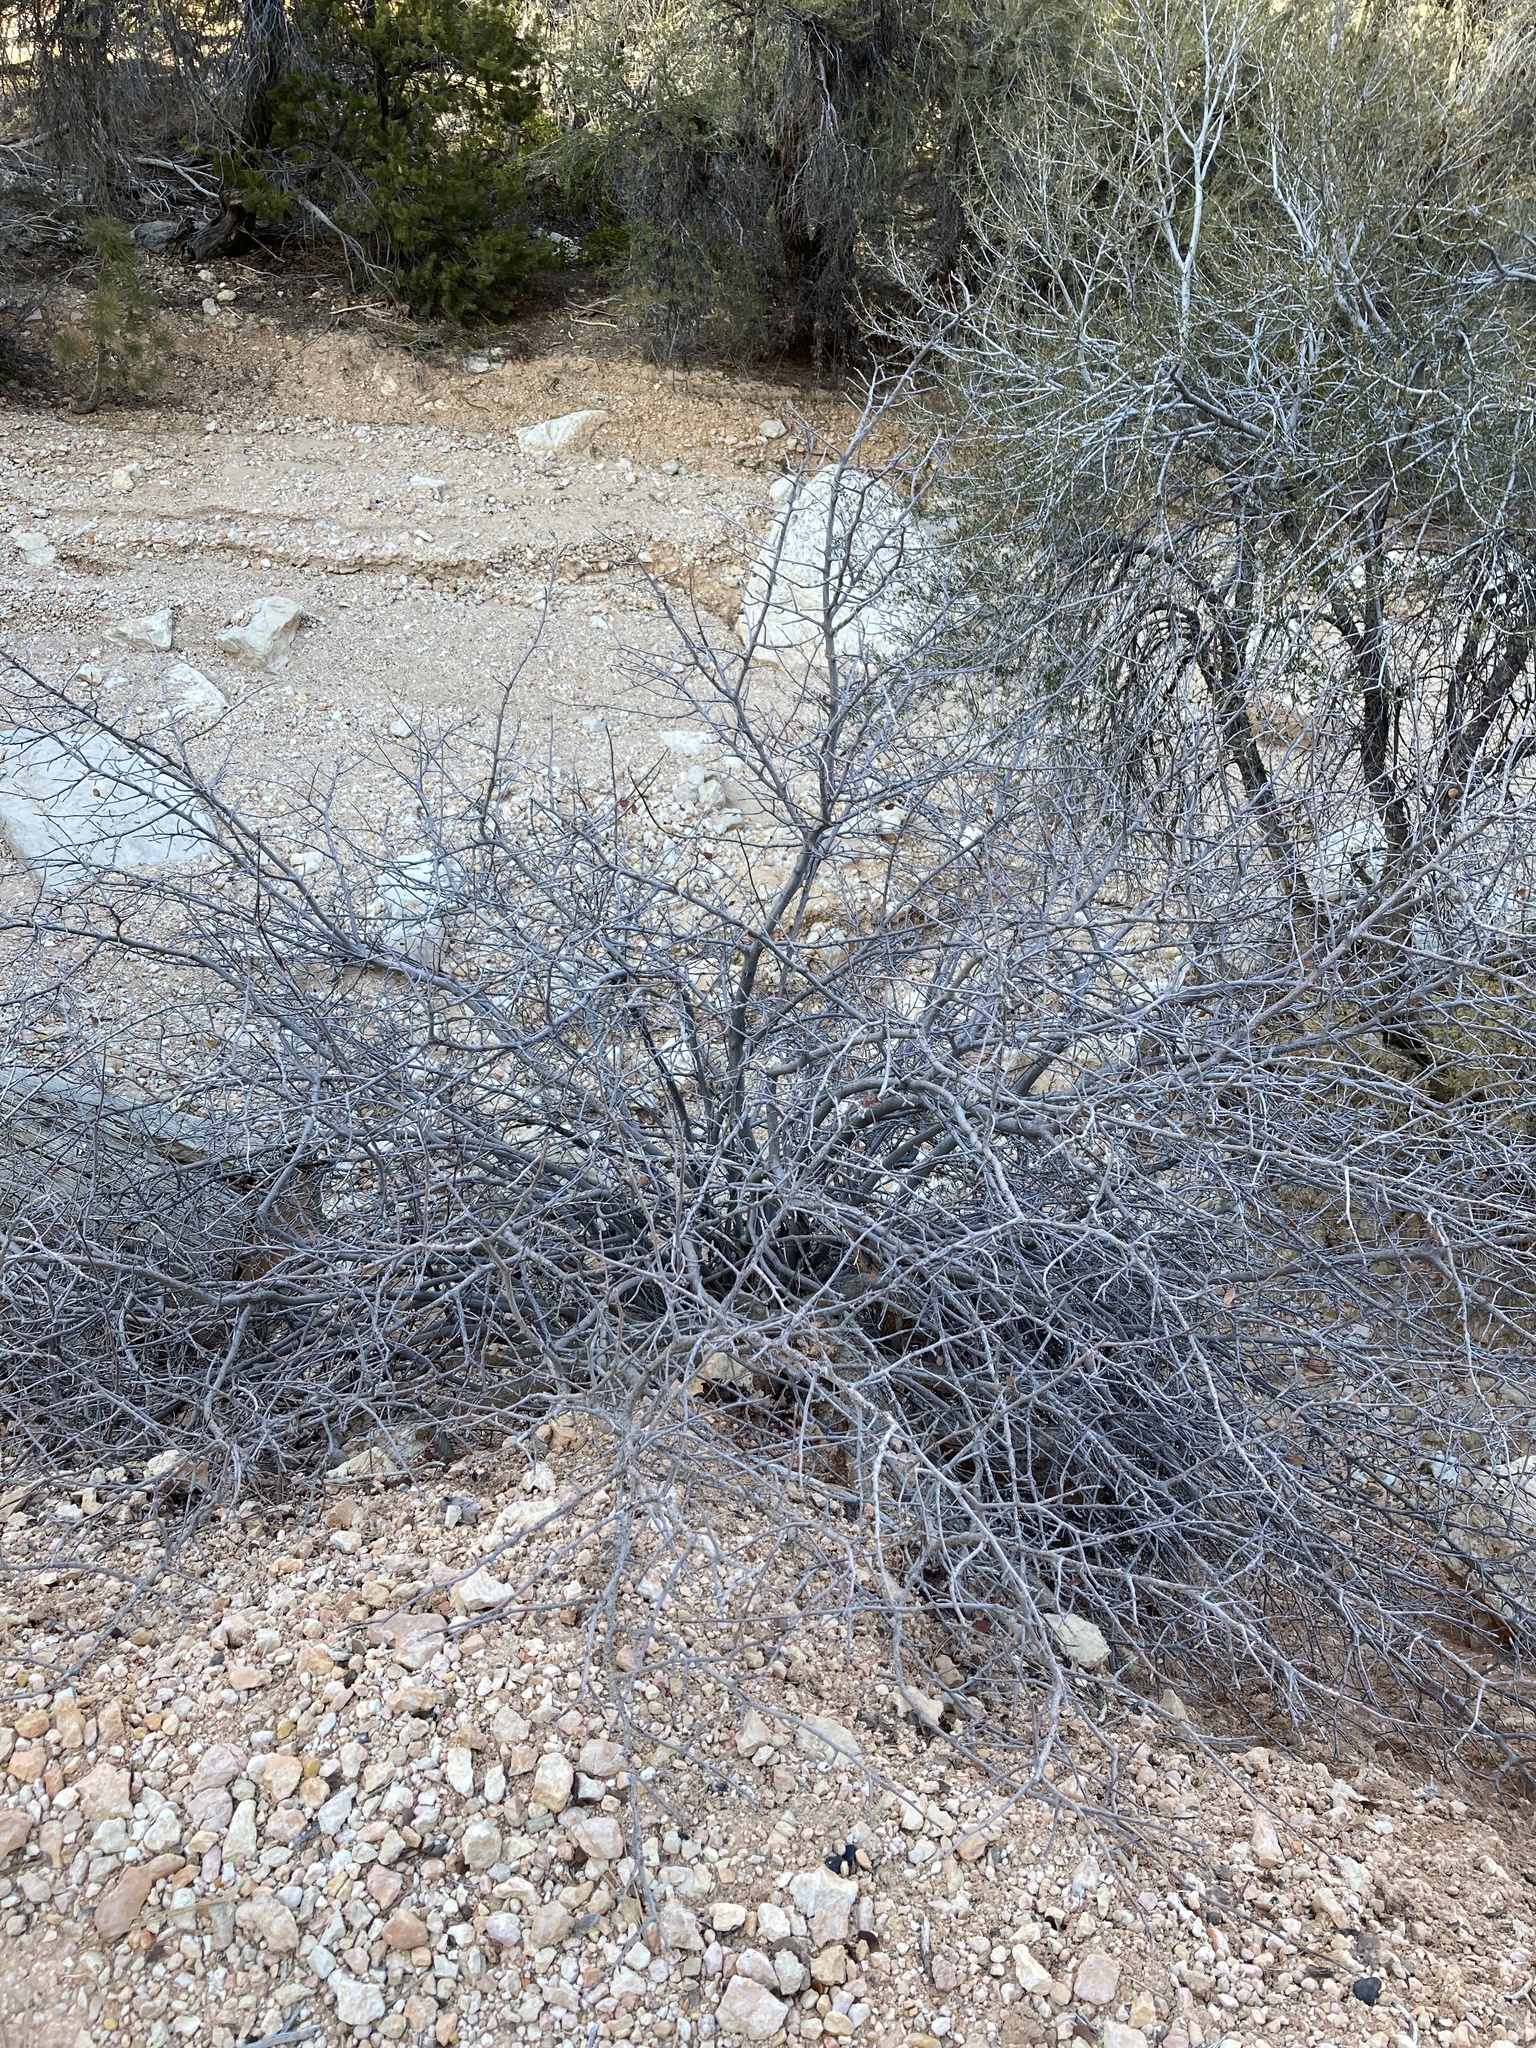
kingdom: Plantae
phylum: Tracheophyta
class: Magnoliopsida
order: Rosales
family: Rosaceae
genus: Amelanchier
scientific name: Amelanchier utahensis
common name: Utah serviceberry
